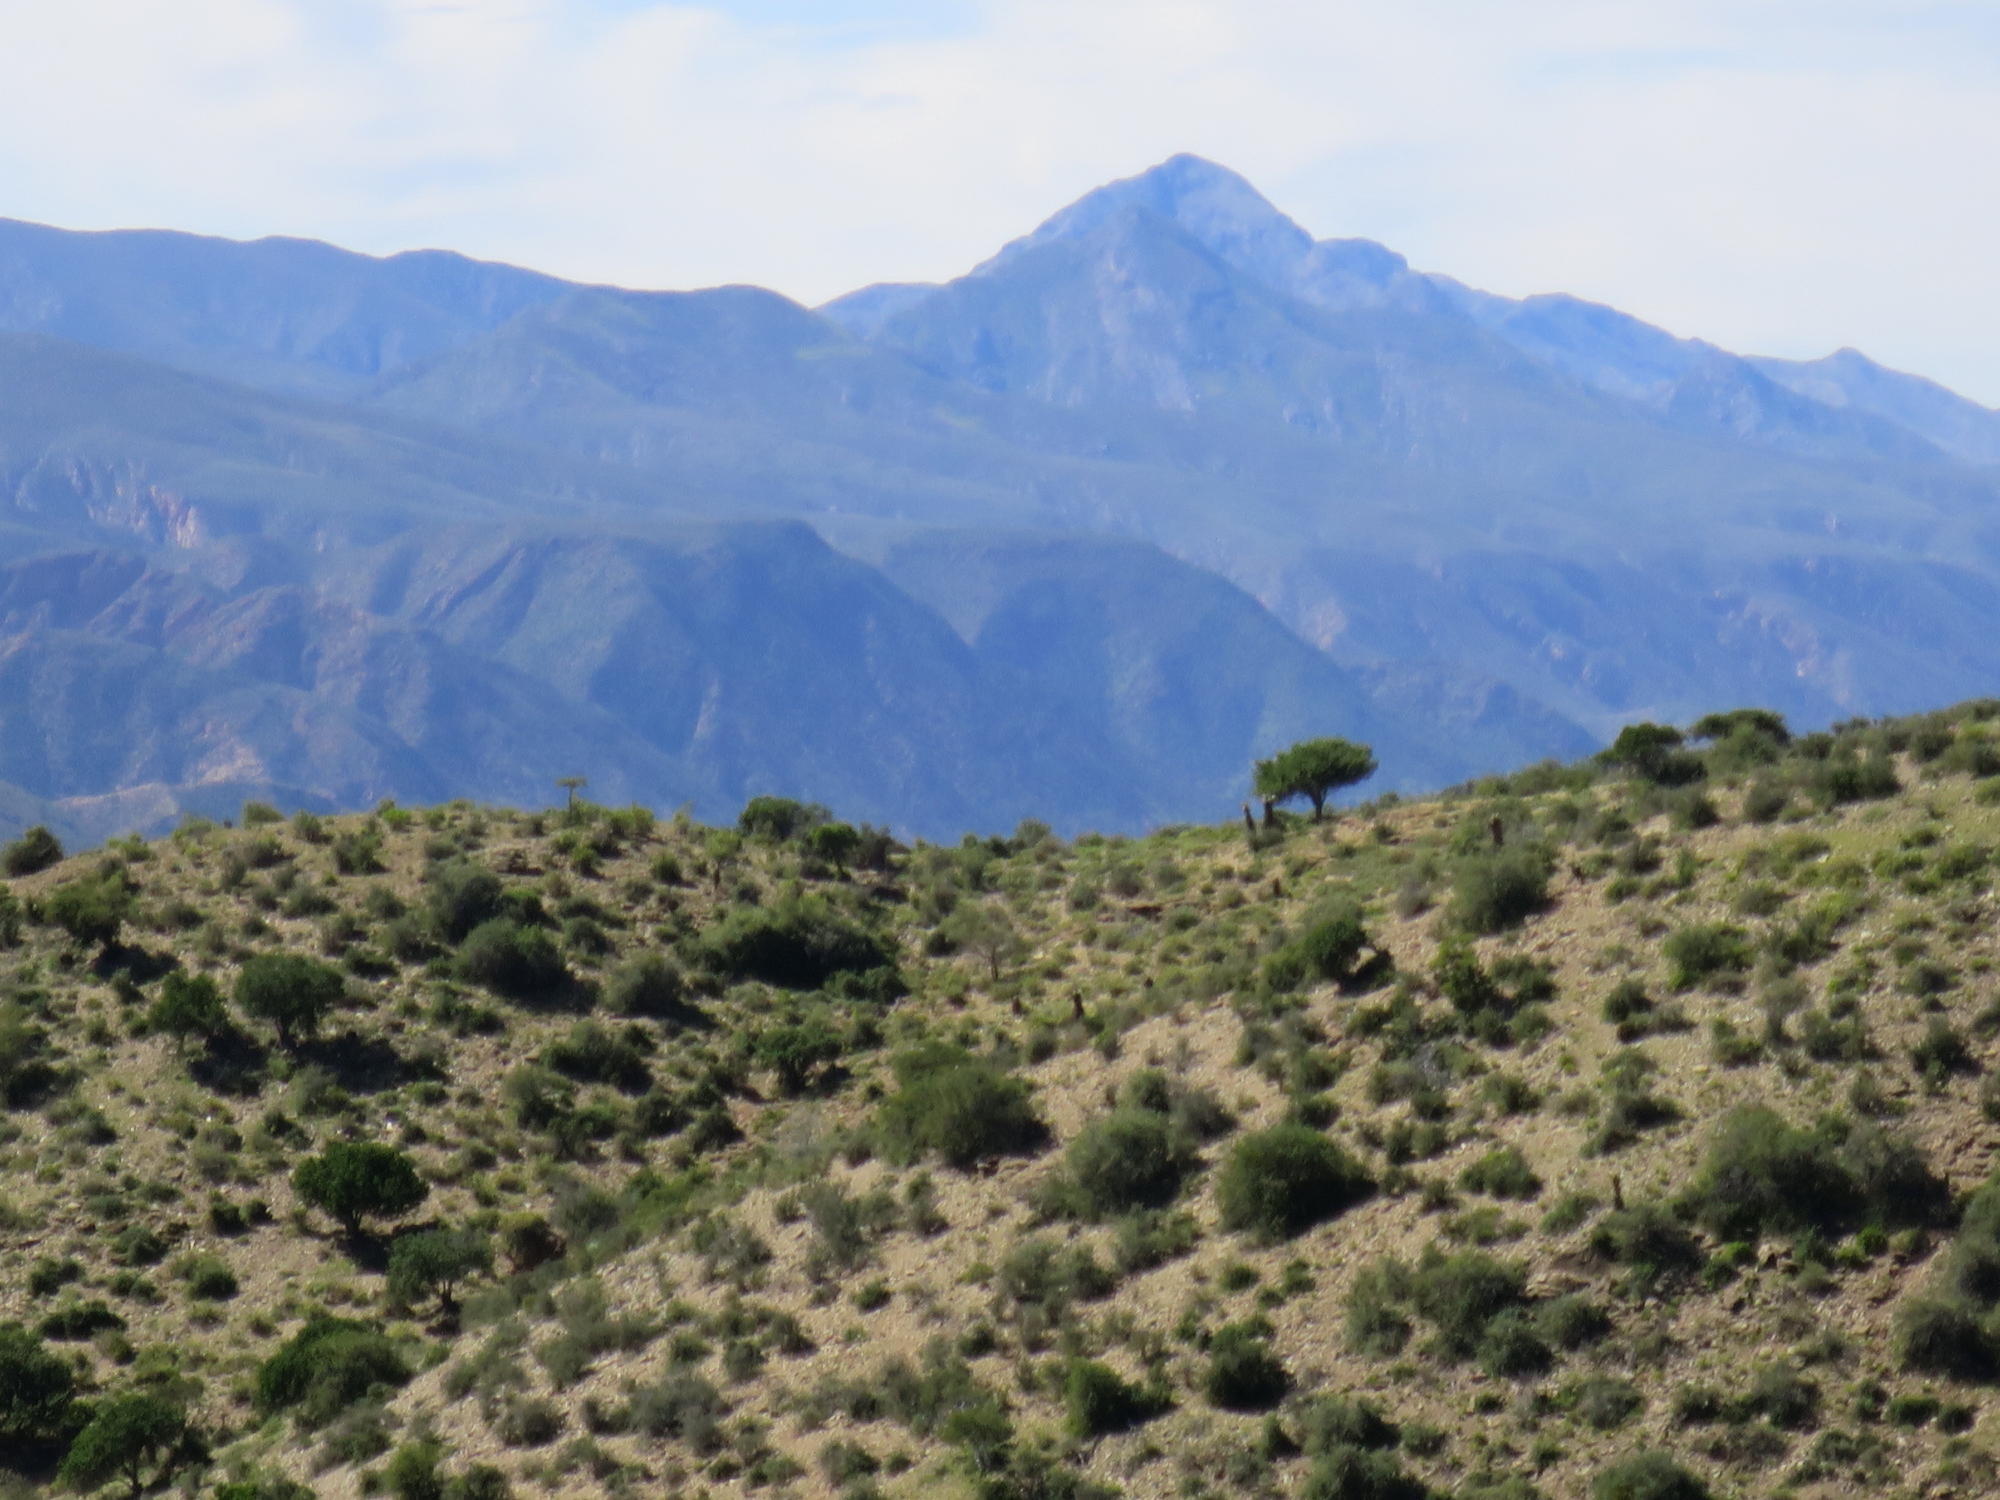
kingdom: Plantae
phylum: Tracheophyta
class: Magnoliopsida
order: Ericales
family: Ebenaceae
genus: Euclea
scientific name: Euclea undulata
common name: Small-leaved guarri
